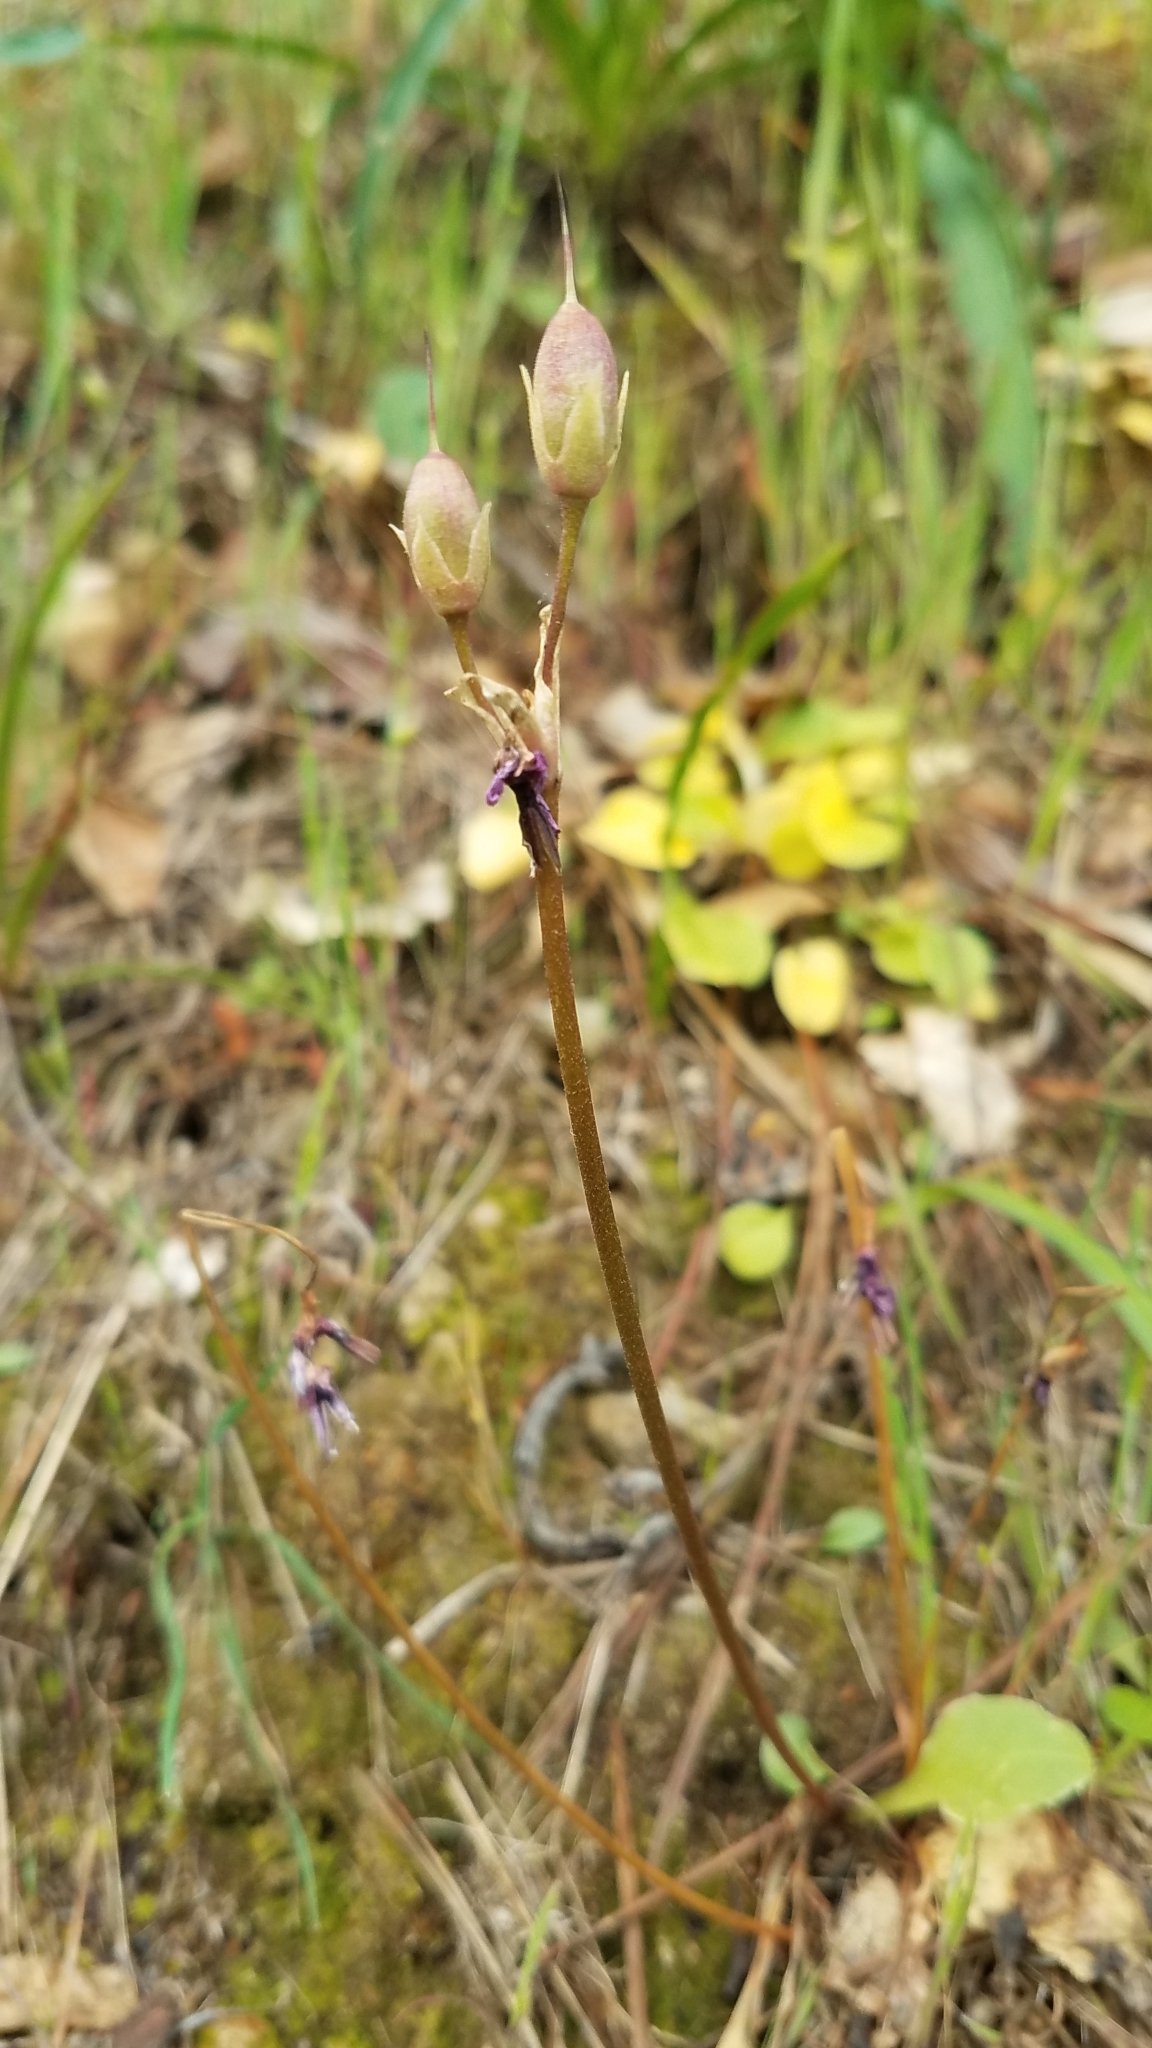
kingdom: Plantae
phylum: Tracheophyta
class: Magnoliopsida
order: Ericales
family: Primulaceae
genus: Dodecatheon
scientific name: Dodecatheon hendersonii
